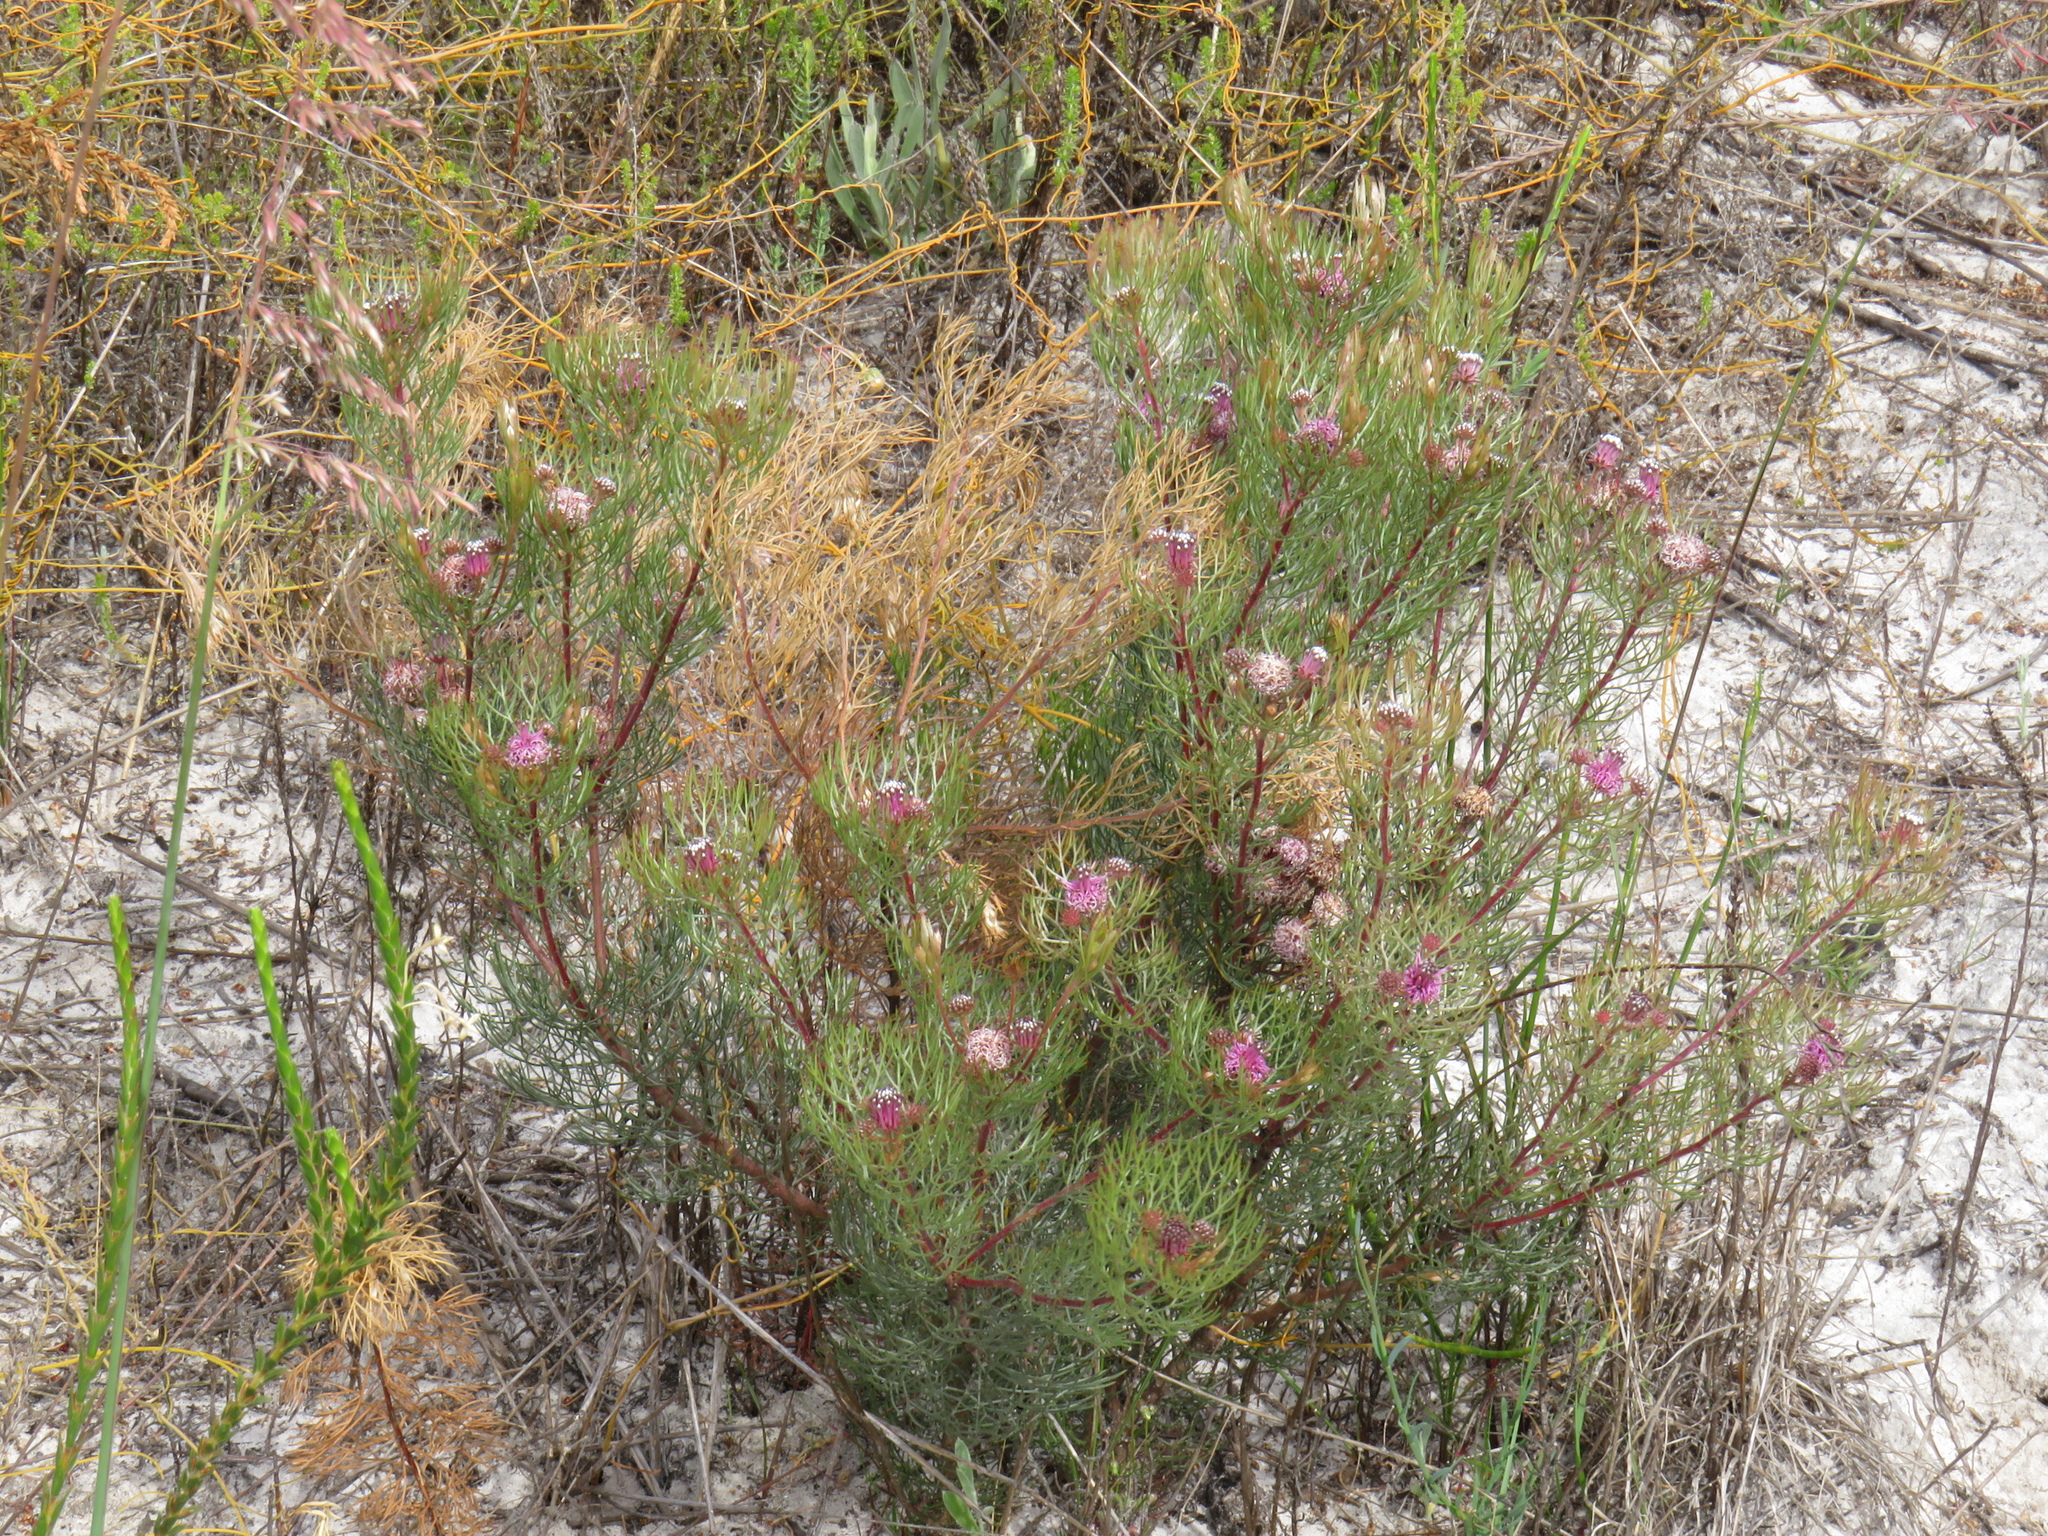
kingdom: Plantae
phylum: Tracheophyta
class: Magnoliopsida
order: Proteales
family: Proteaceae
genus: Serruria
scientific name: Serruria fasciflora
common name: Common pin spiderhead
